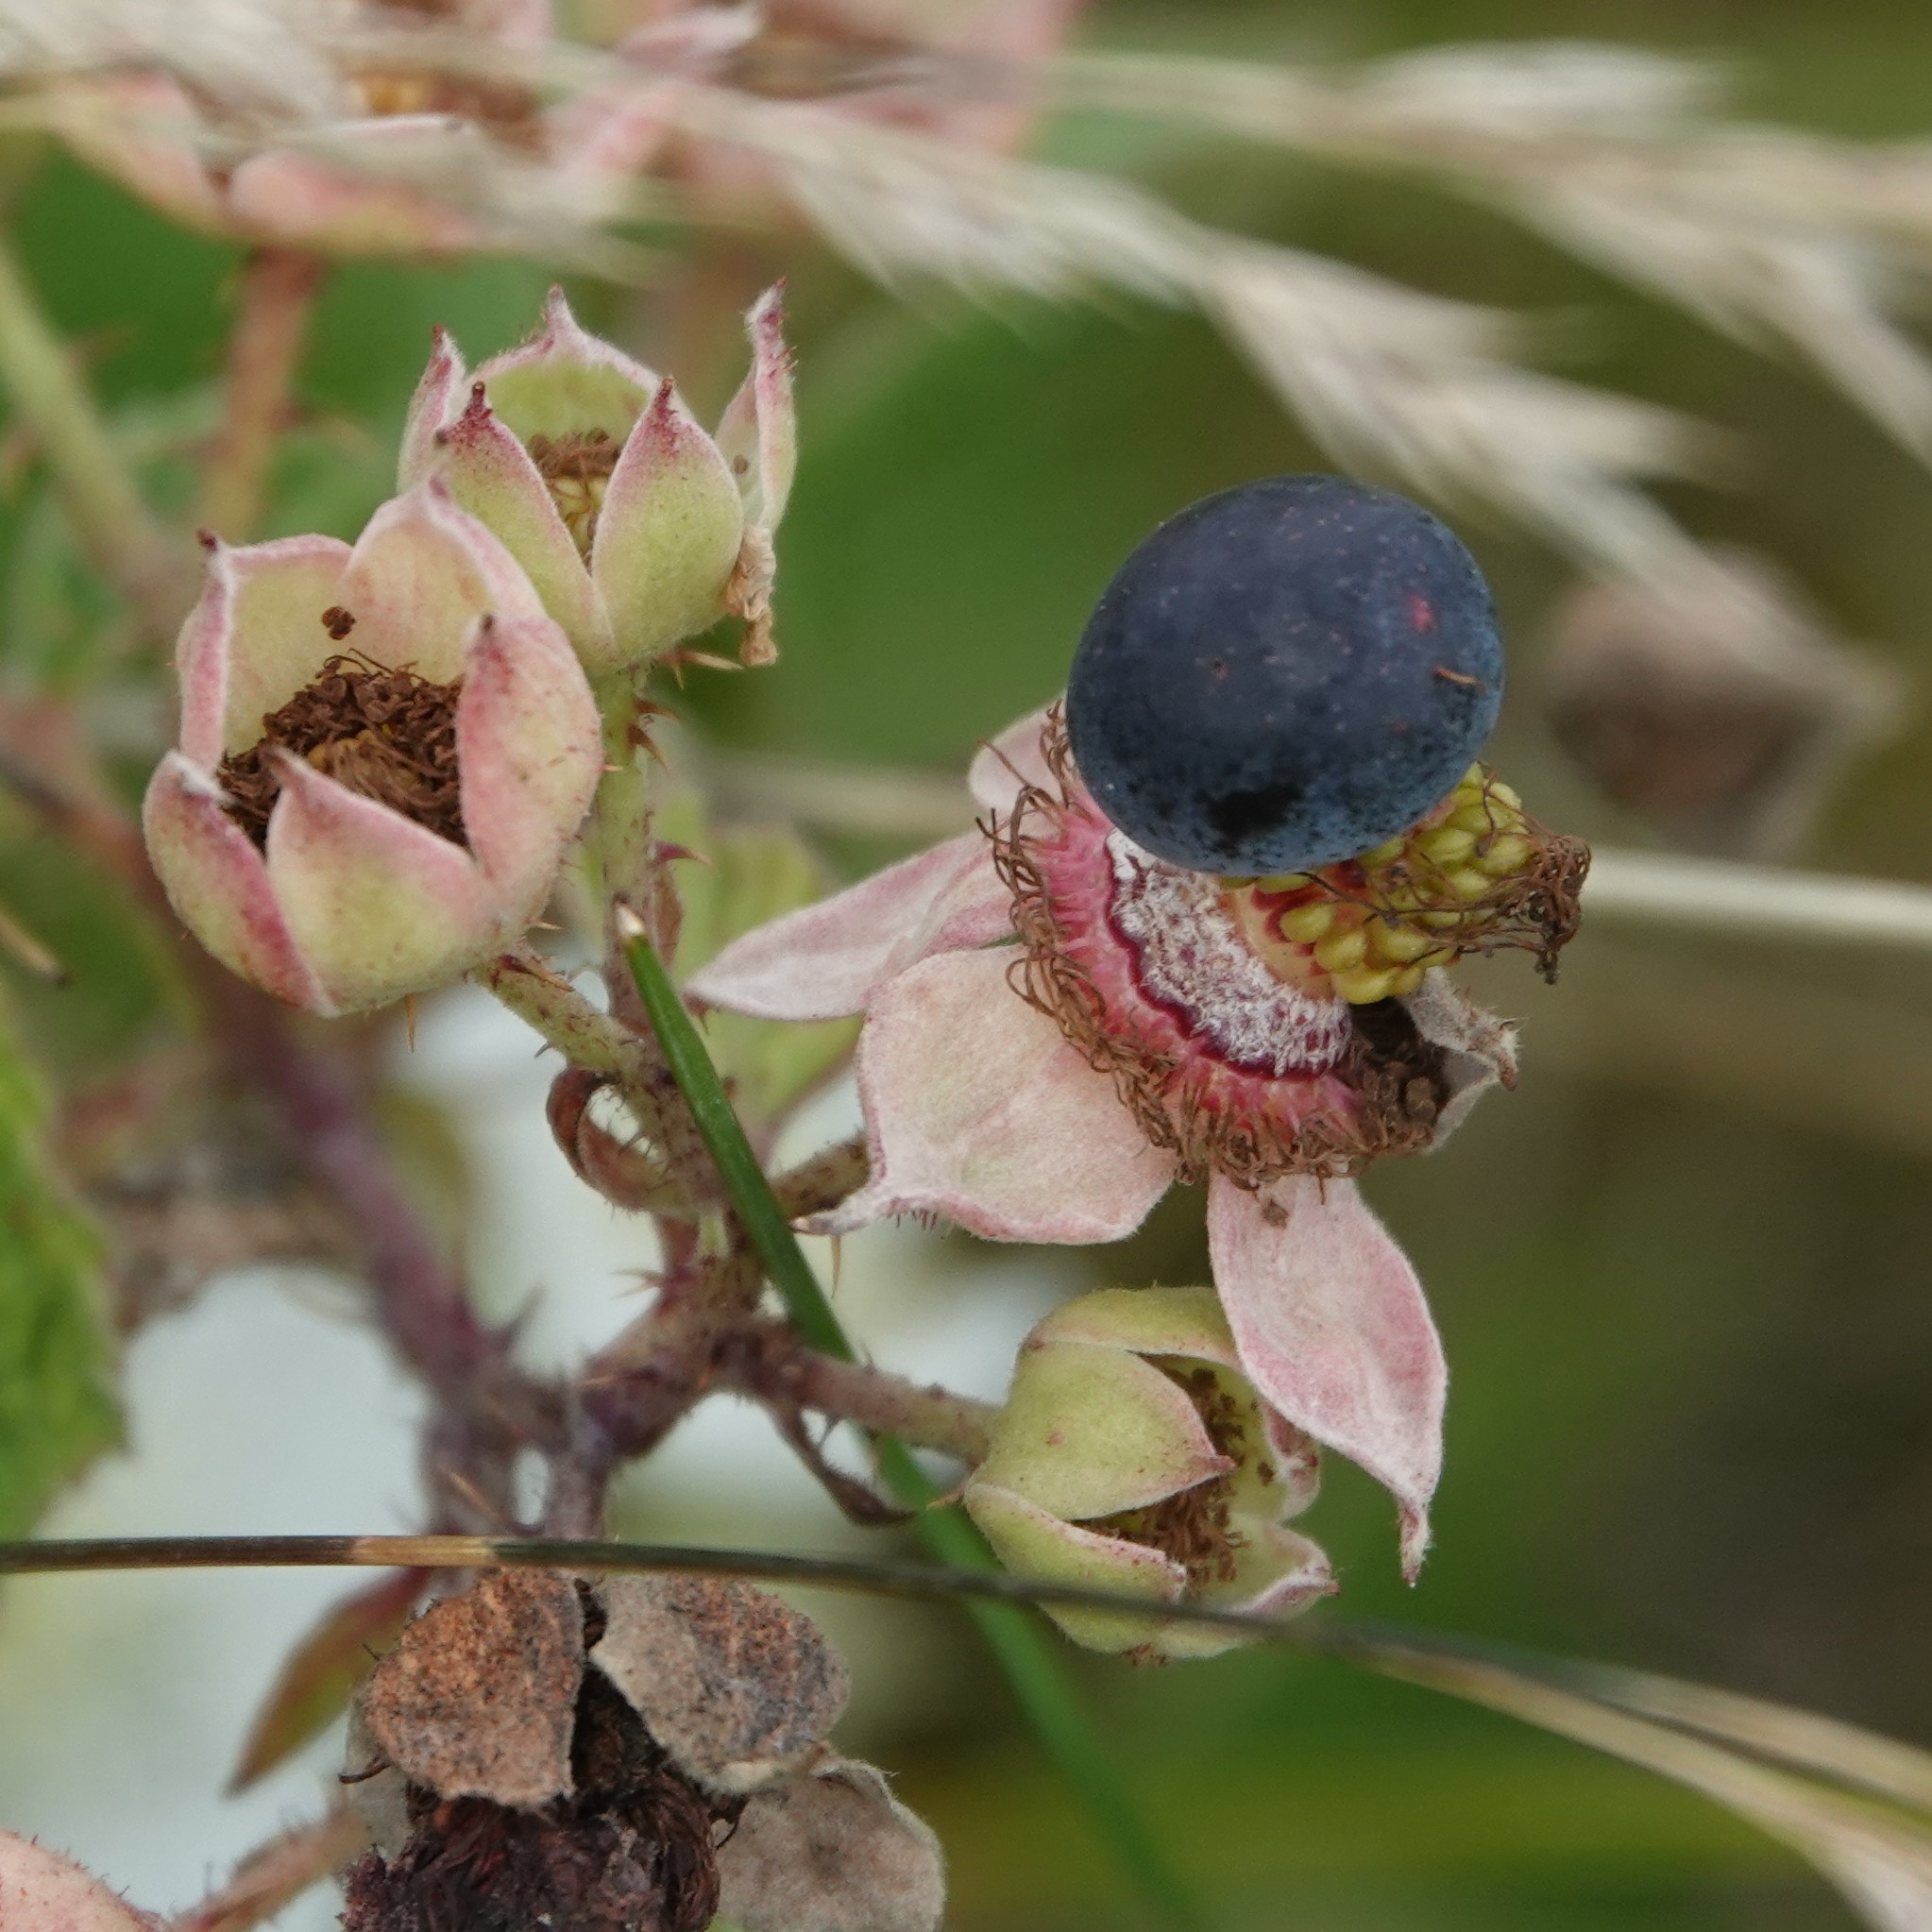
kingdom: Plantae
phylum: Tracheophyta
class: Magnoliopsida
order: Rosales
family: Rosaceae
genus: Rubus
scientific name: Rubus caesius
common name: Dewberry
